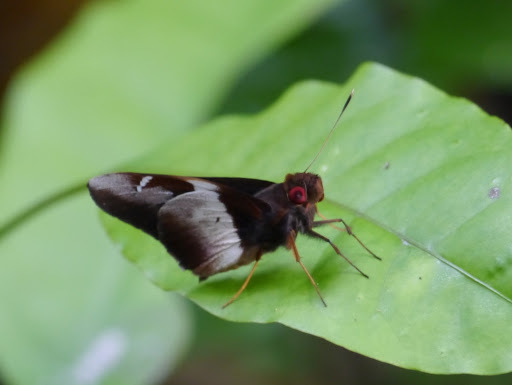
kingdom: Animalia
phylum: Arthropoda
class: Insecta
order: Lepidoptera
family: Hesperiidae
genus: Pteroteinon
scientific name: Pteroteinon caenira
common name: White-banded red-eye
